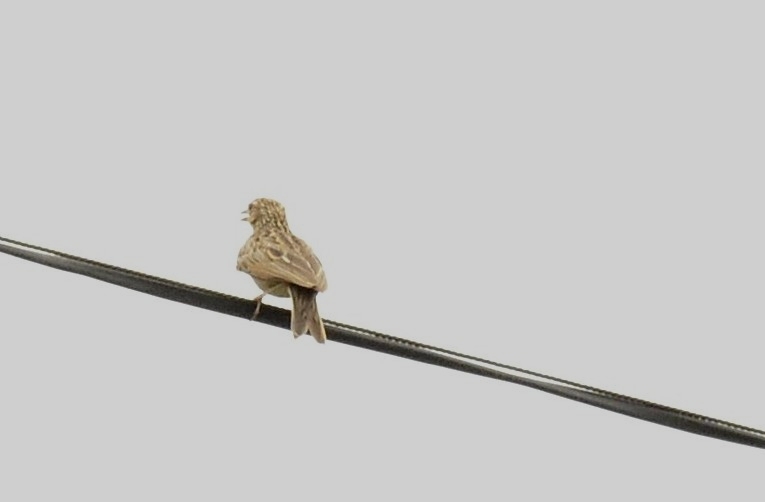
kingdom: Animalia
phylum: Chordata
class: Aves
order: Passeriformes
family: Alaudidae
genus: Mirafra
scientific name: Mirafra affinis
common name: Jerdon's bushlark
